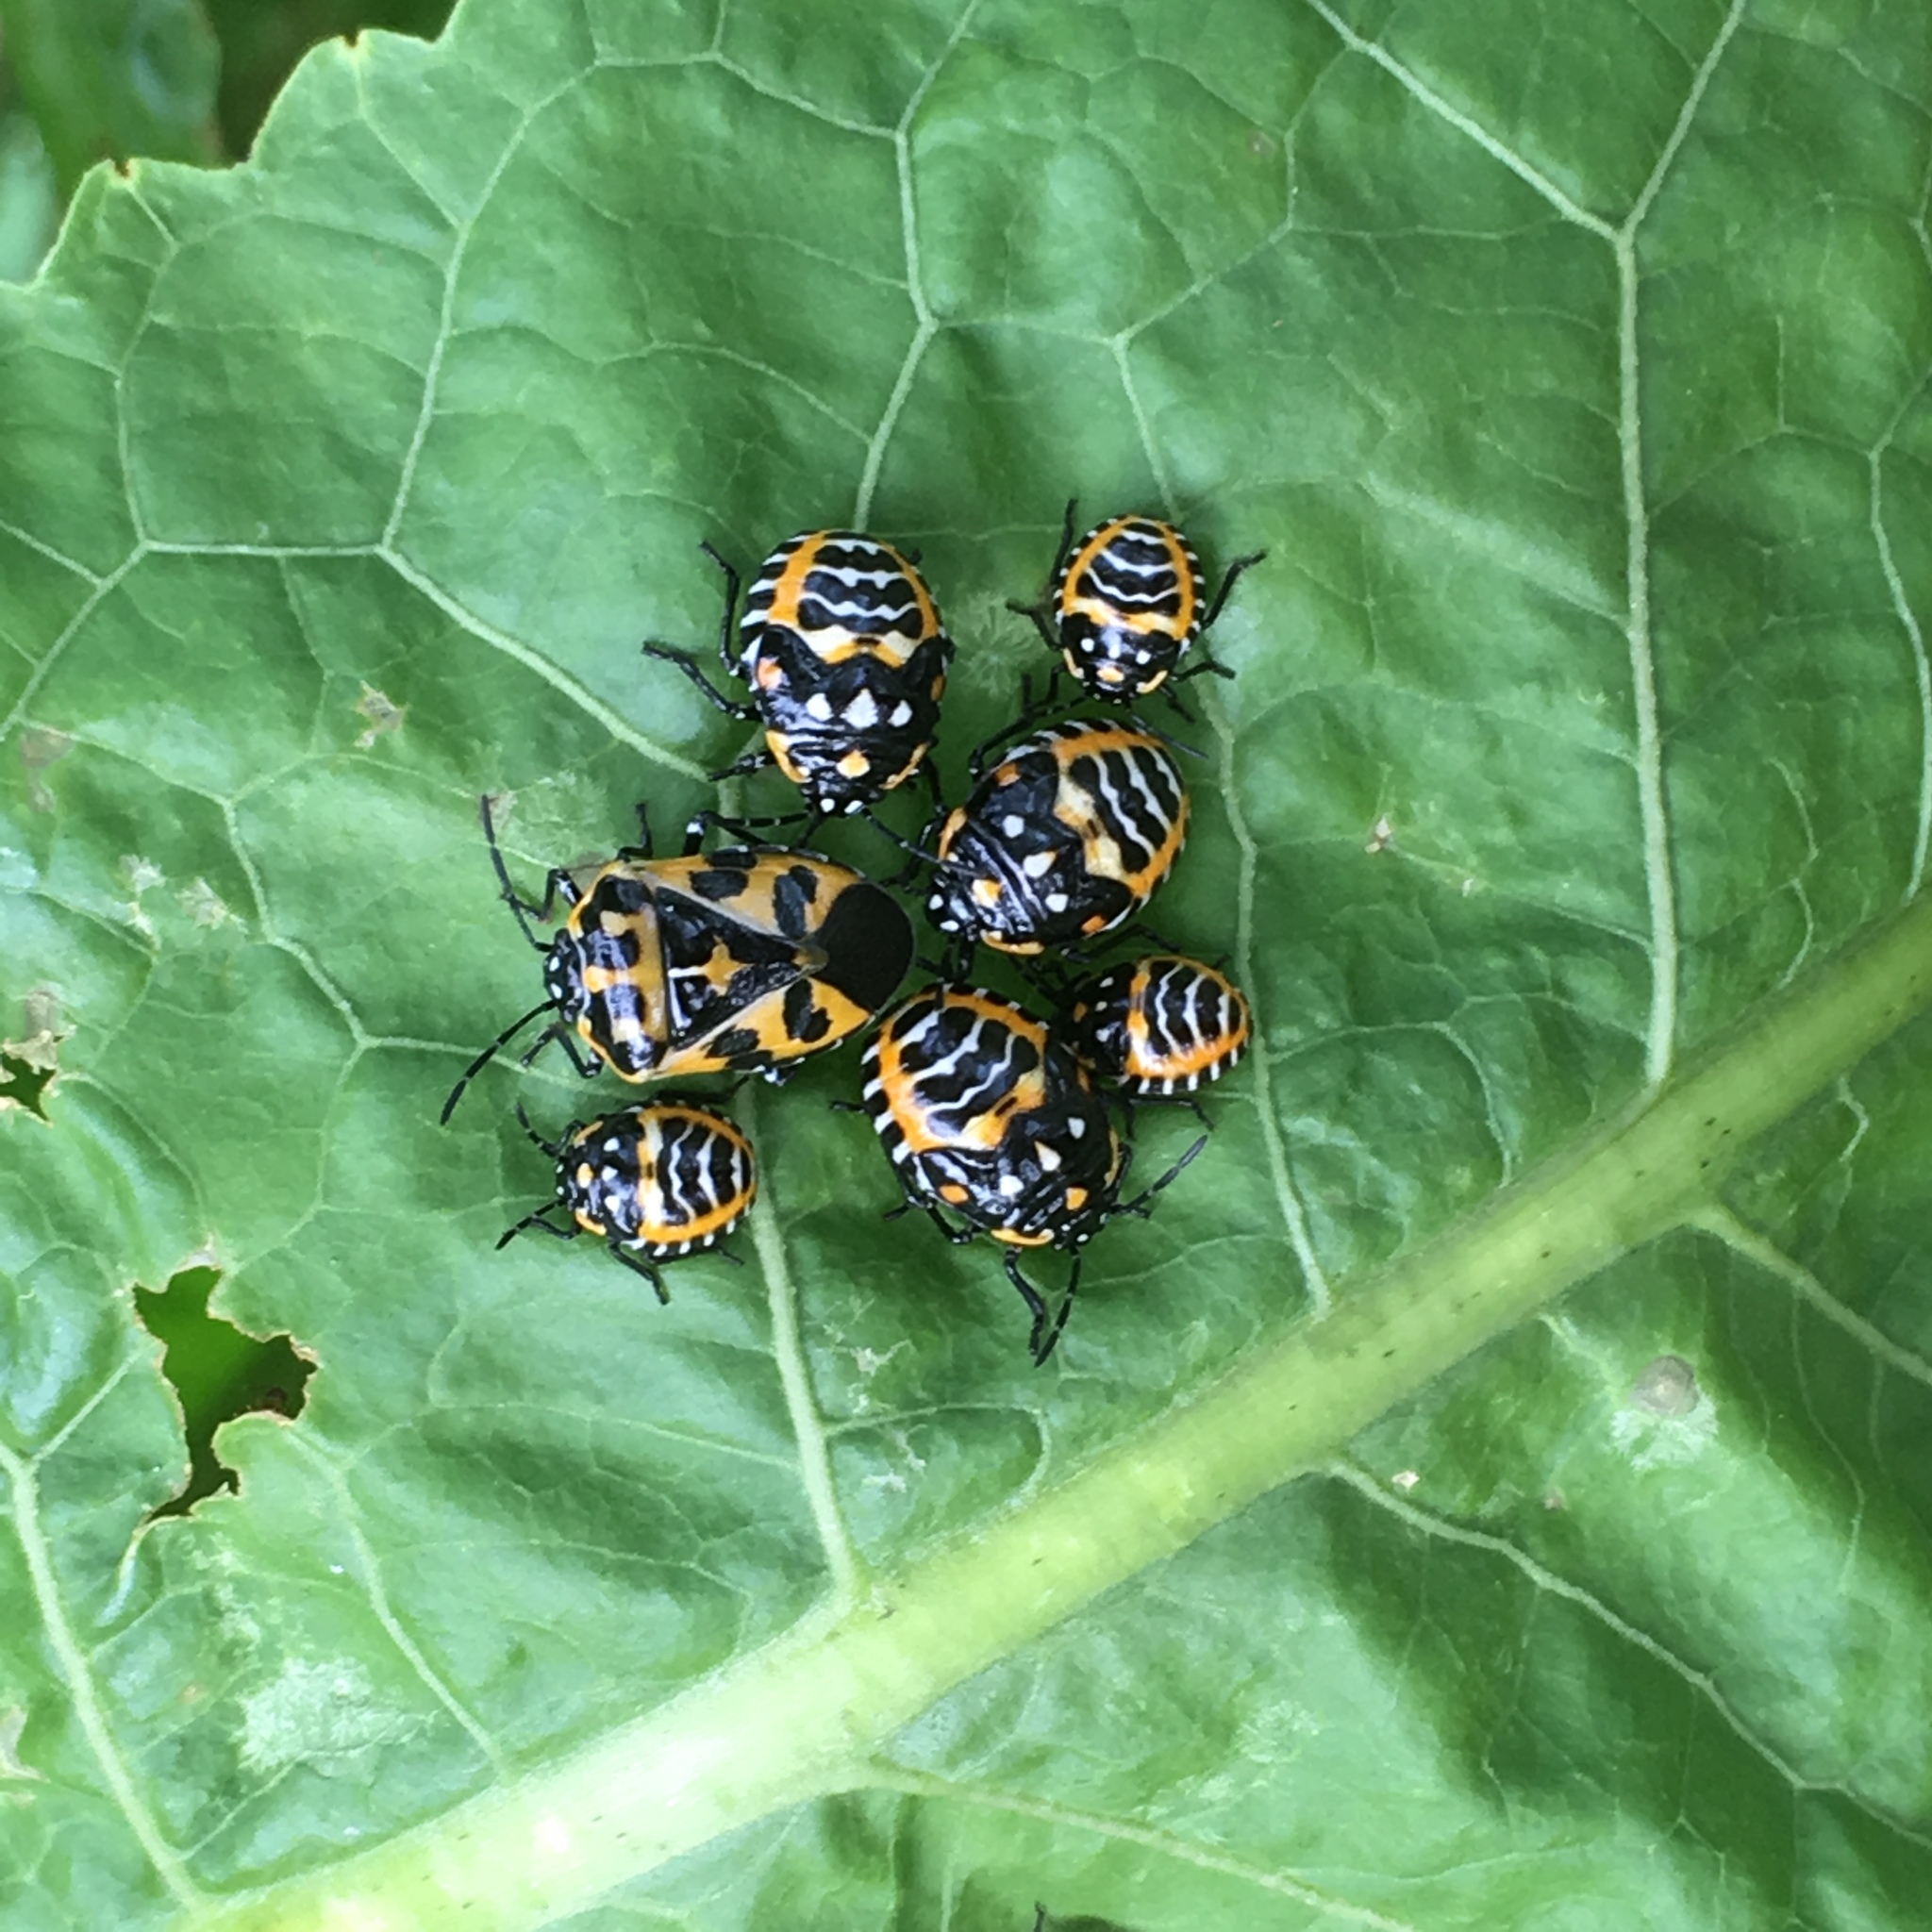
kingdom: Animalia
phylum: Arthropoda
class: Insecta
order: Hemiptera
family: Pentatomidae
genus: Murgantia
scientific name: Murgantia histrionica
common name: Harlequin bug
